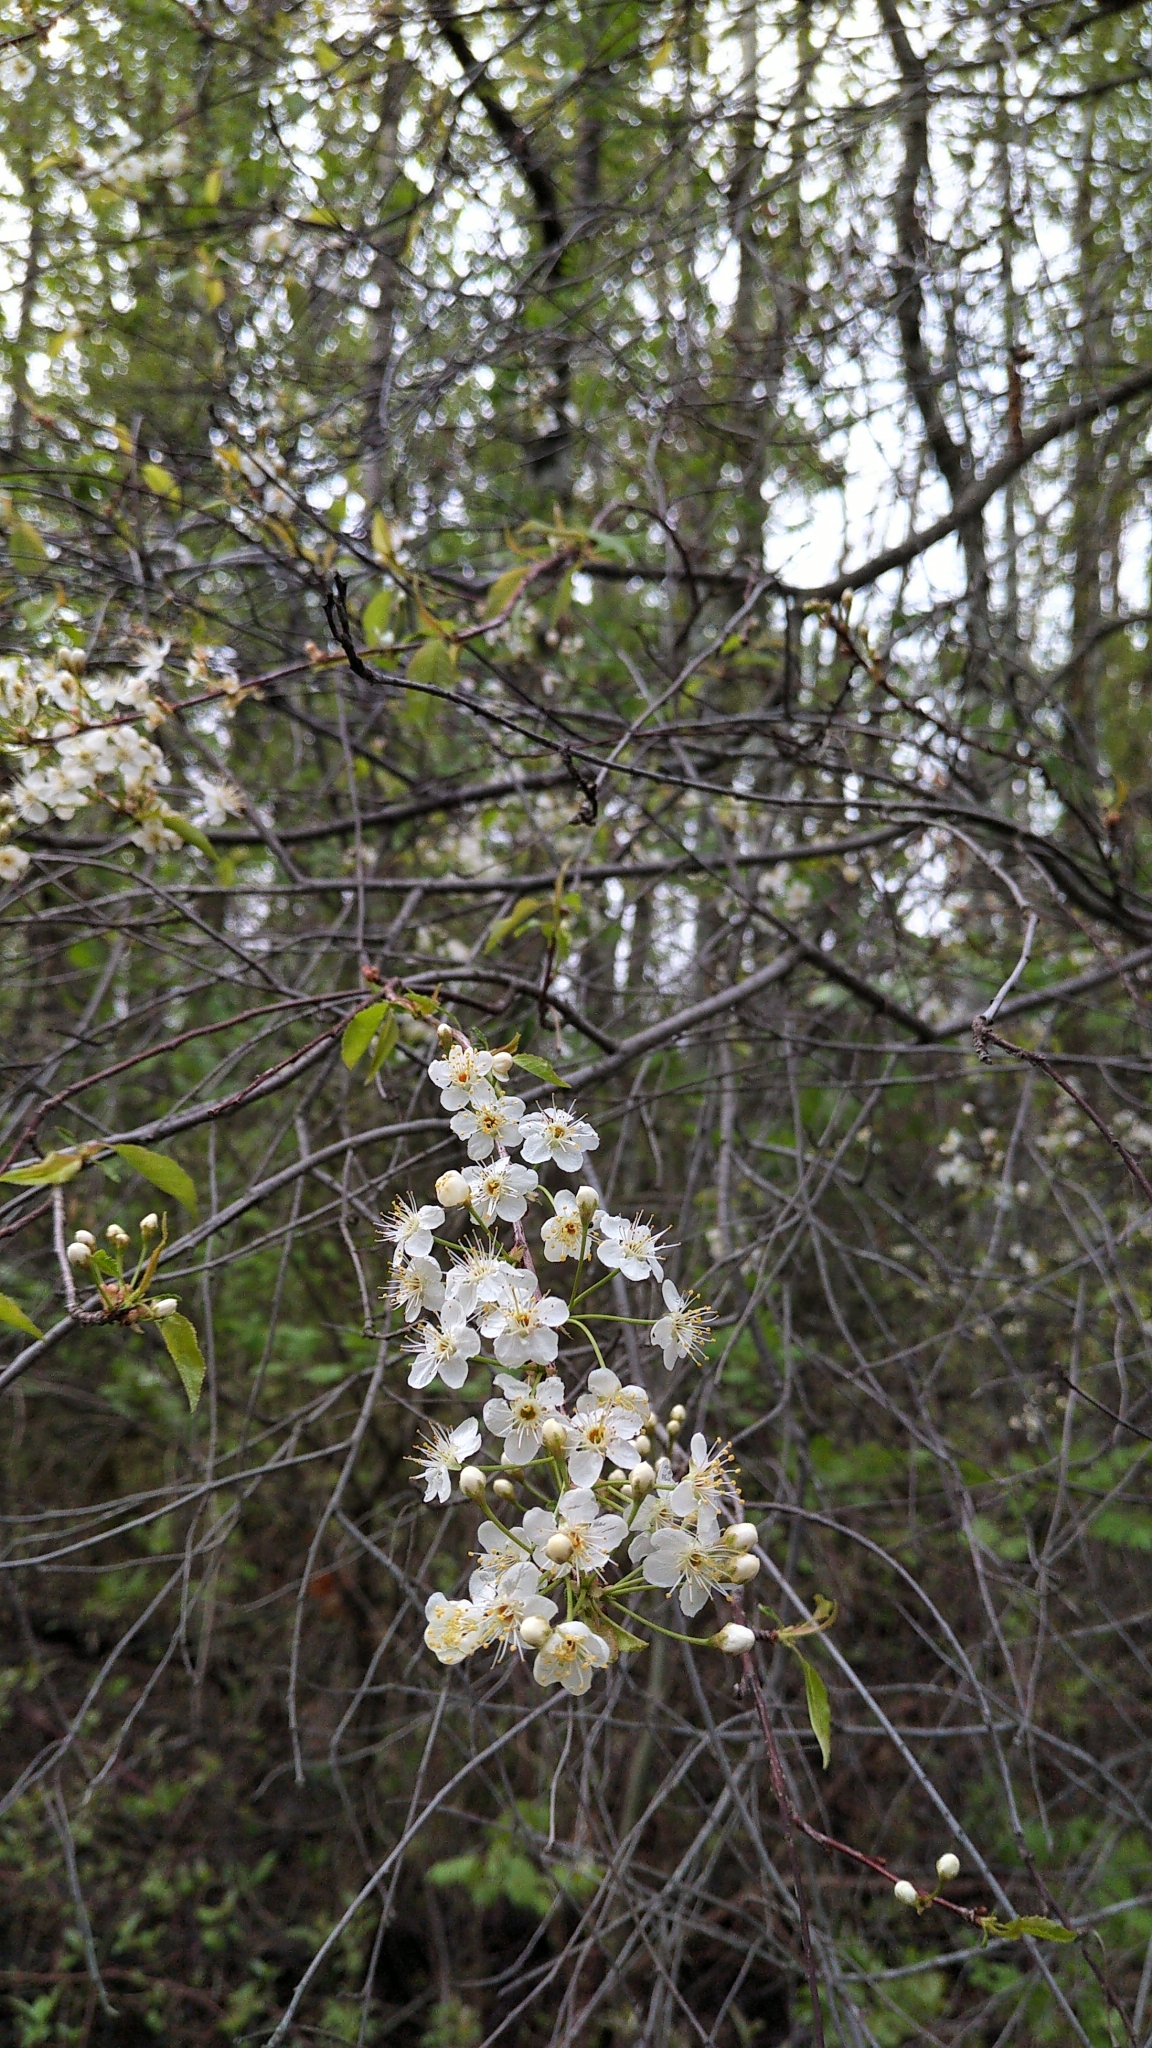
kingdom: Plantae
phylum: Tracheophyta
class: Magnoliopsida
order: Rosales
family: Rosaceae
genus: Prunus
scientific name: Prunus pensylvanica
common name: Pin cherry
